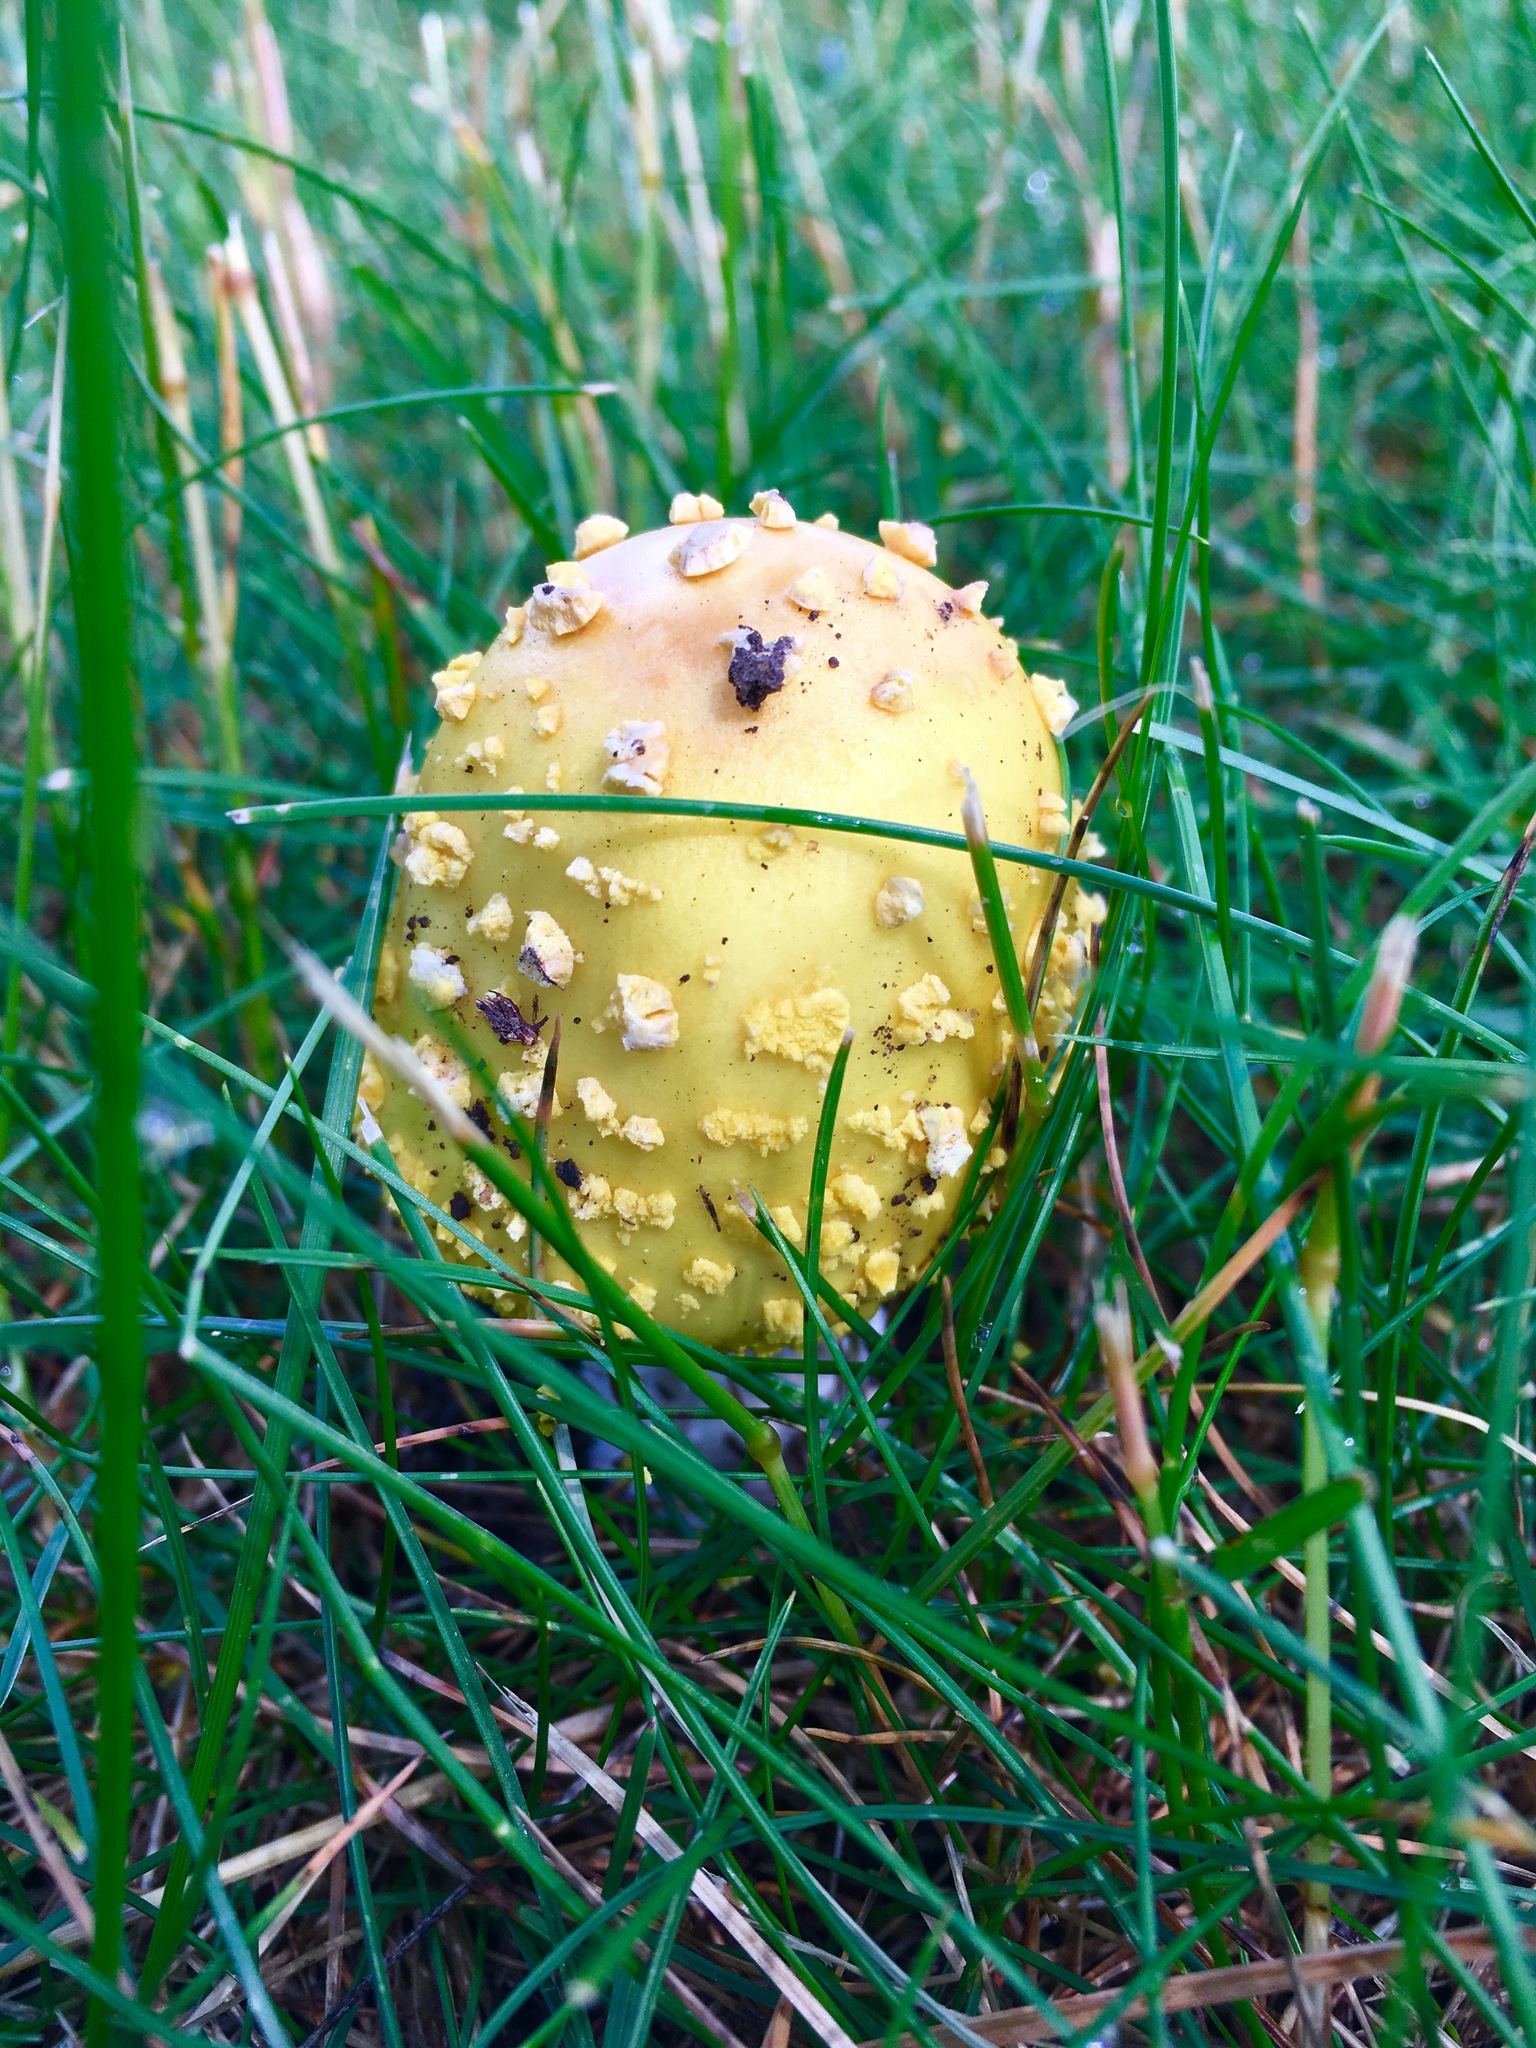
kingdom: Fungi
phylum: Basidiomycota
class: Agaricomycetes
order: Agaricales
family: Amanitaceae
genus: Amanita
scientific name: Amanita flavorubens
